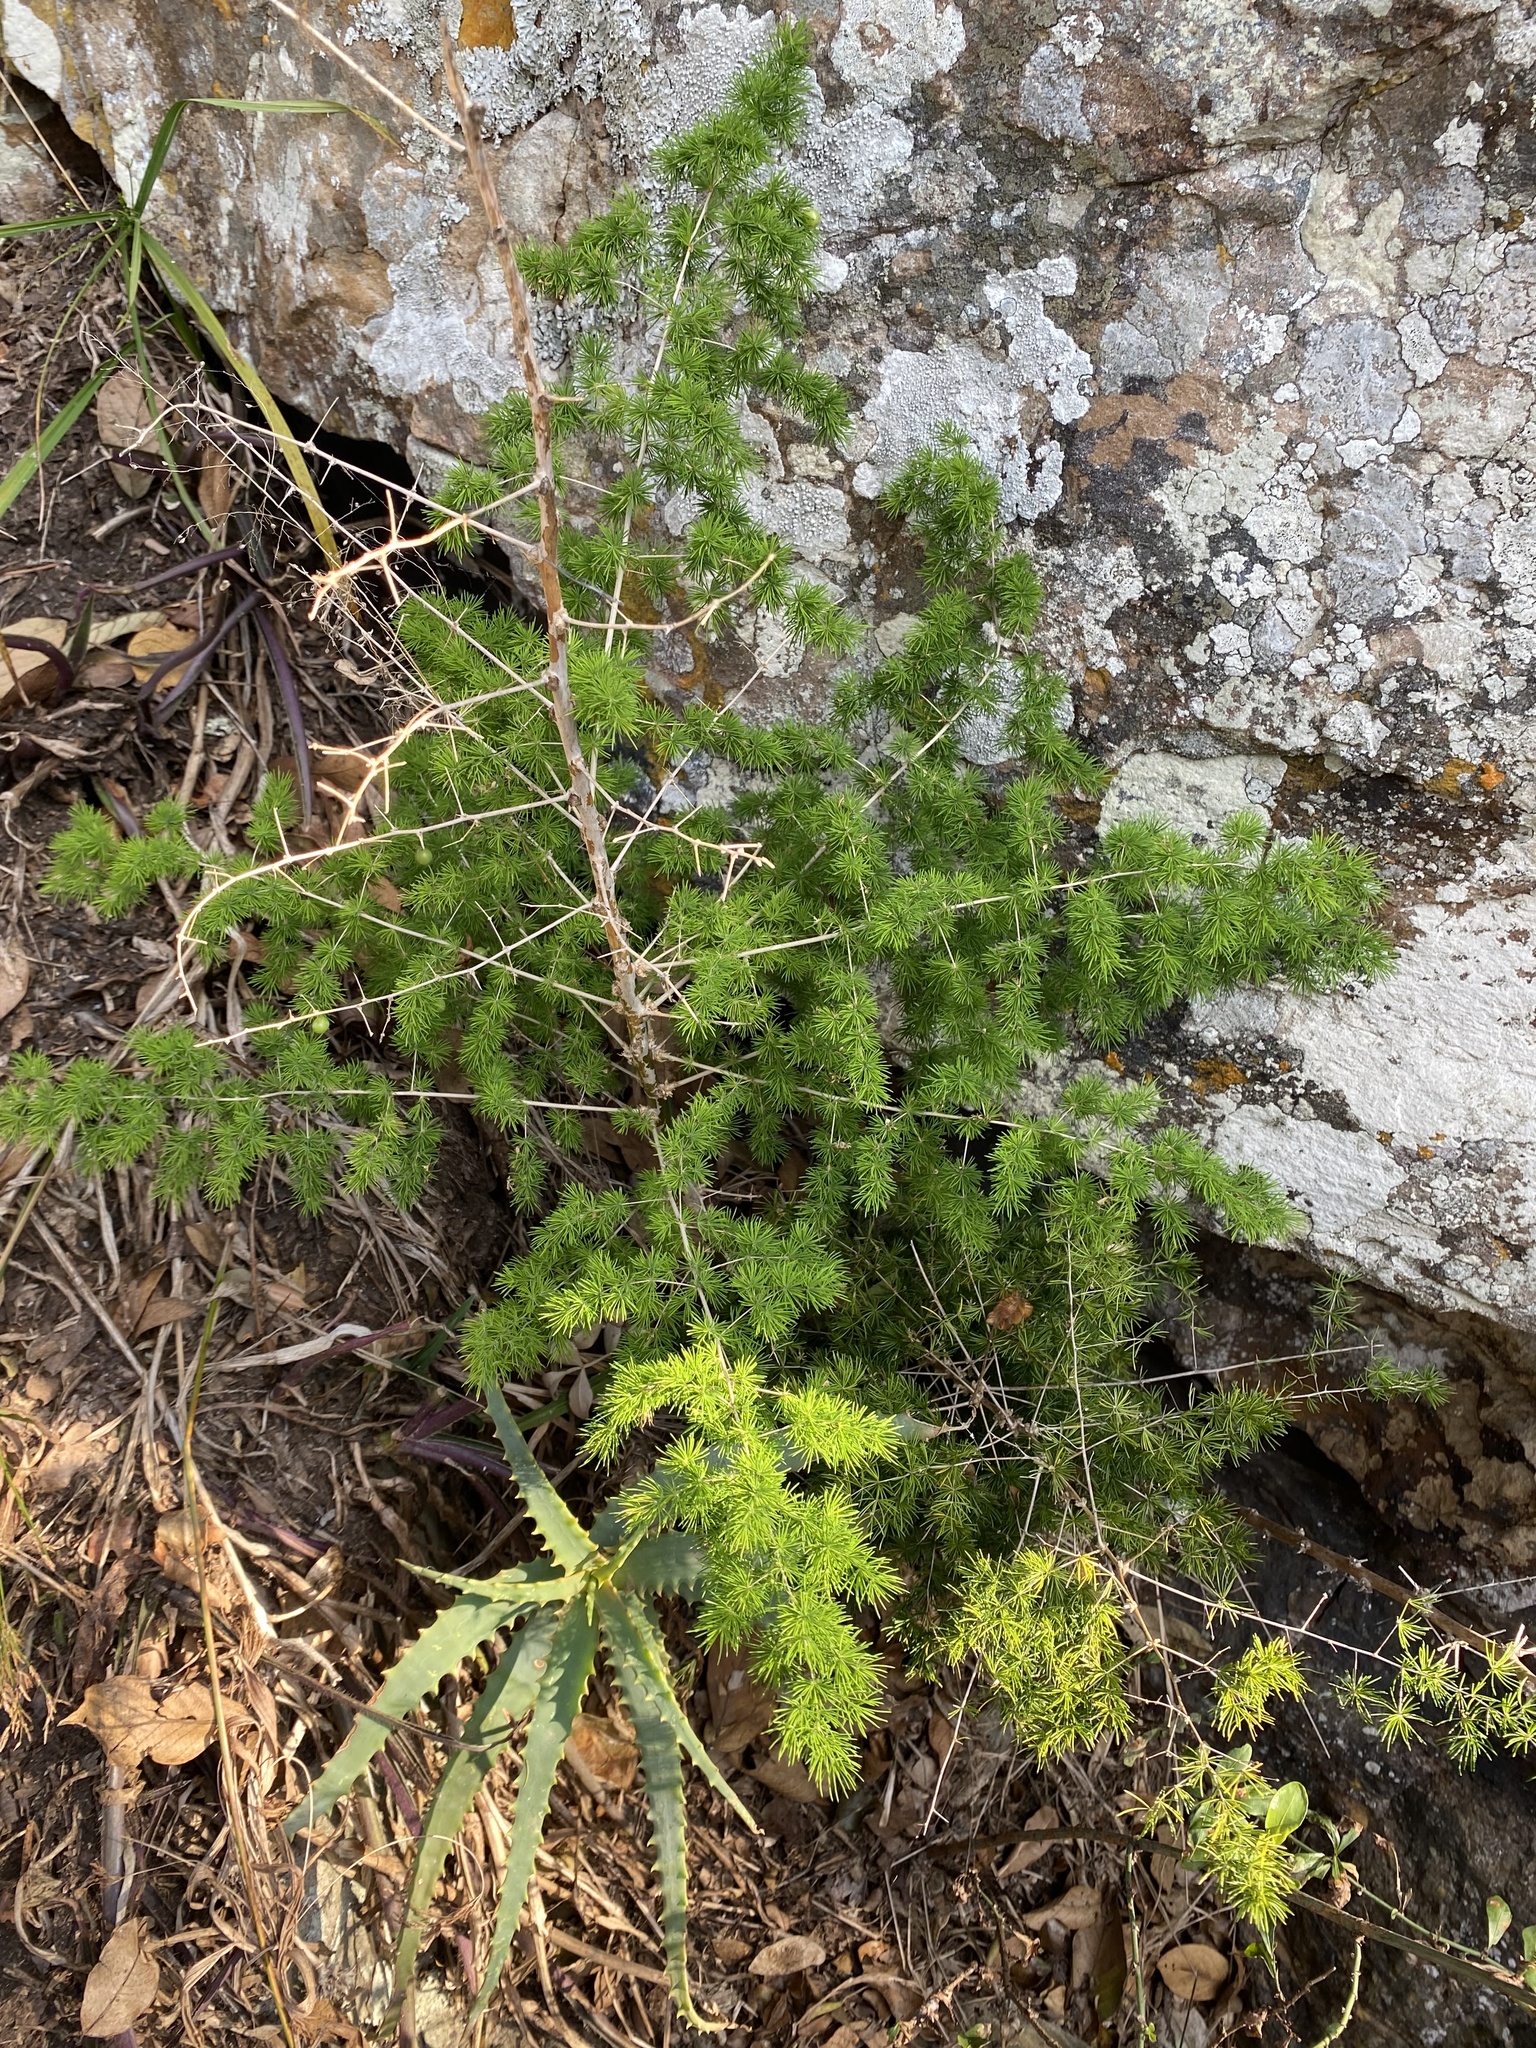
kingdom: Plantae
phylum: Tracheophyta
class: Liliopsida
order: Asparagales
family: Asparagaceae
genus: Asparagus
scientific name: Asparagus macowanii
